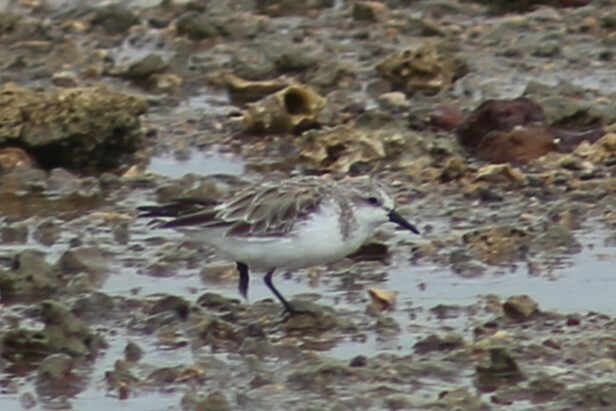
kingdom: Animalia
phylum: Chordata
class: Aves
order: Charadriiformes
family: Scolopacidae
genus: Calidris
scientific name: Calidris ruficollis
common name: Red-necked stint
